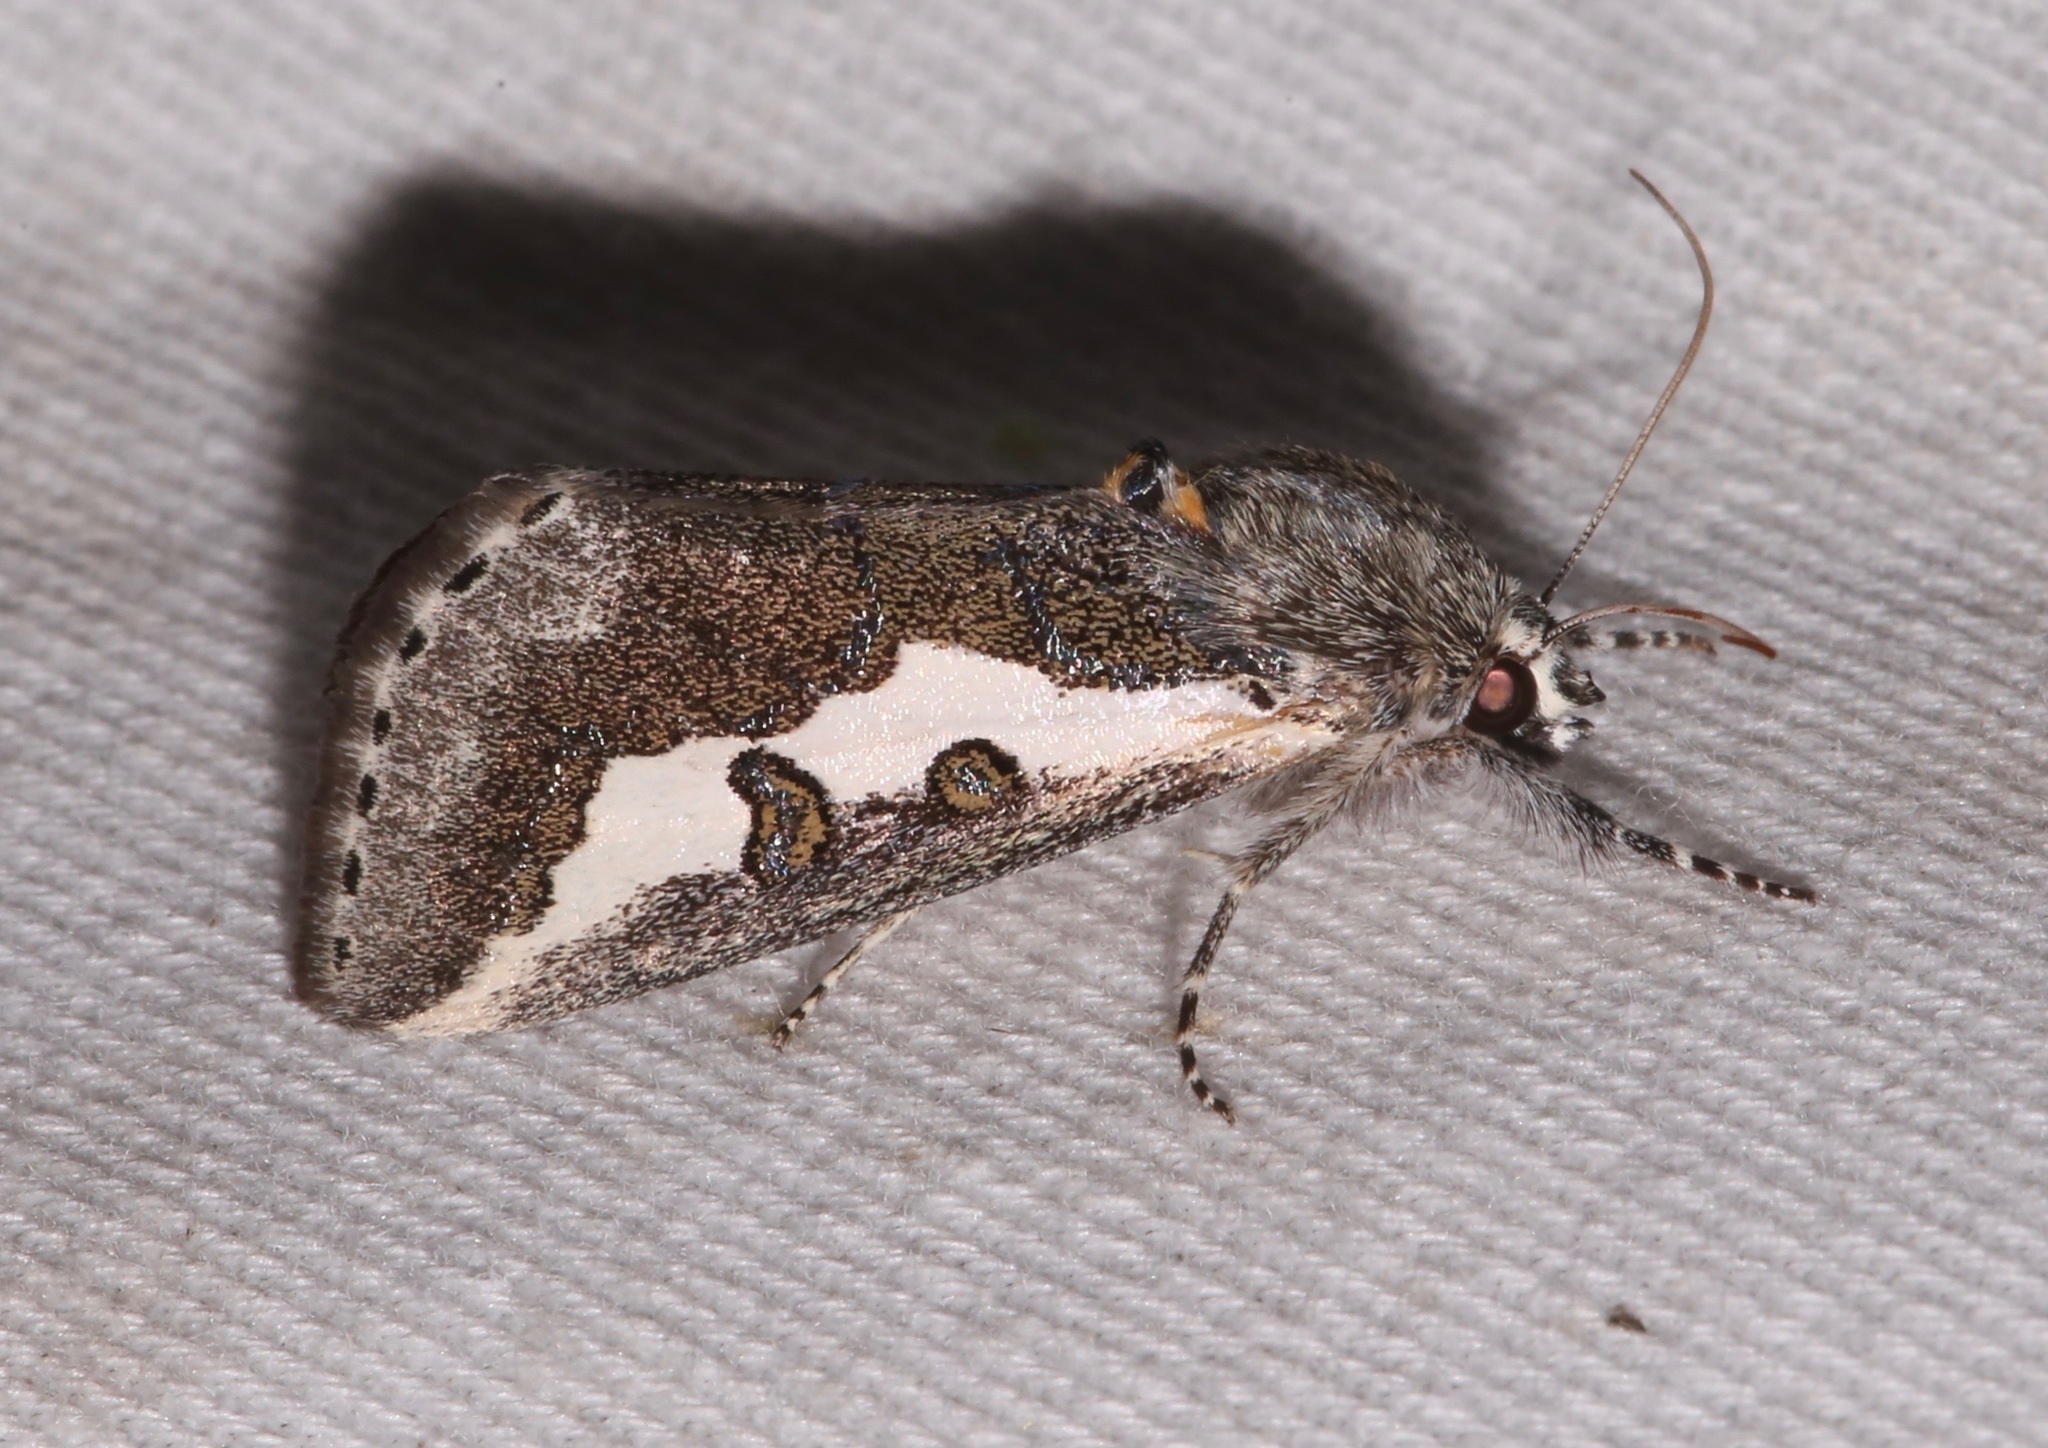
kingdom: Animalia
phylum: Arthropoda
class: Insecta
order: Lepidoptera
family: Noctuidae
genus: Euscirrhopterus
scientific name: Euscirrhopterus gloveri
